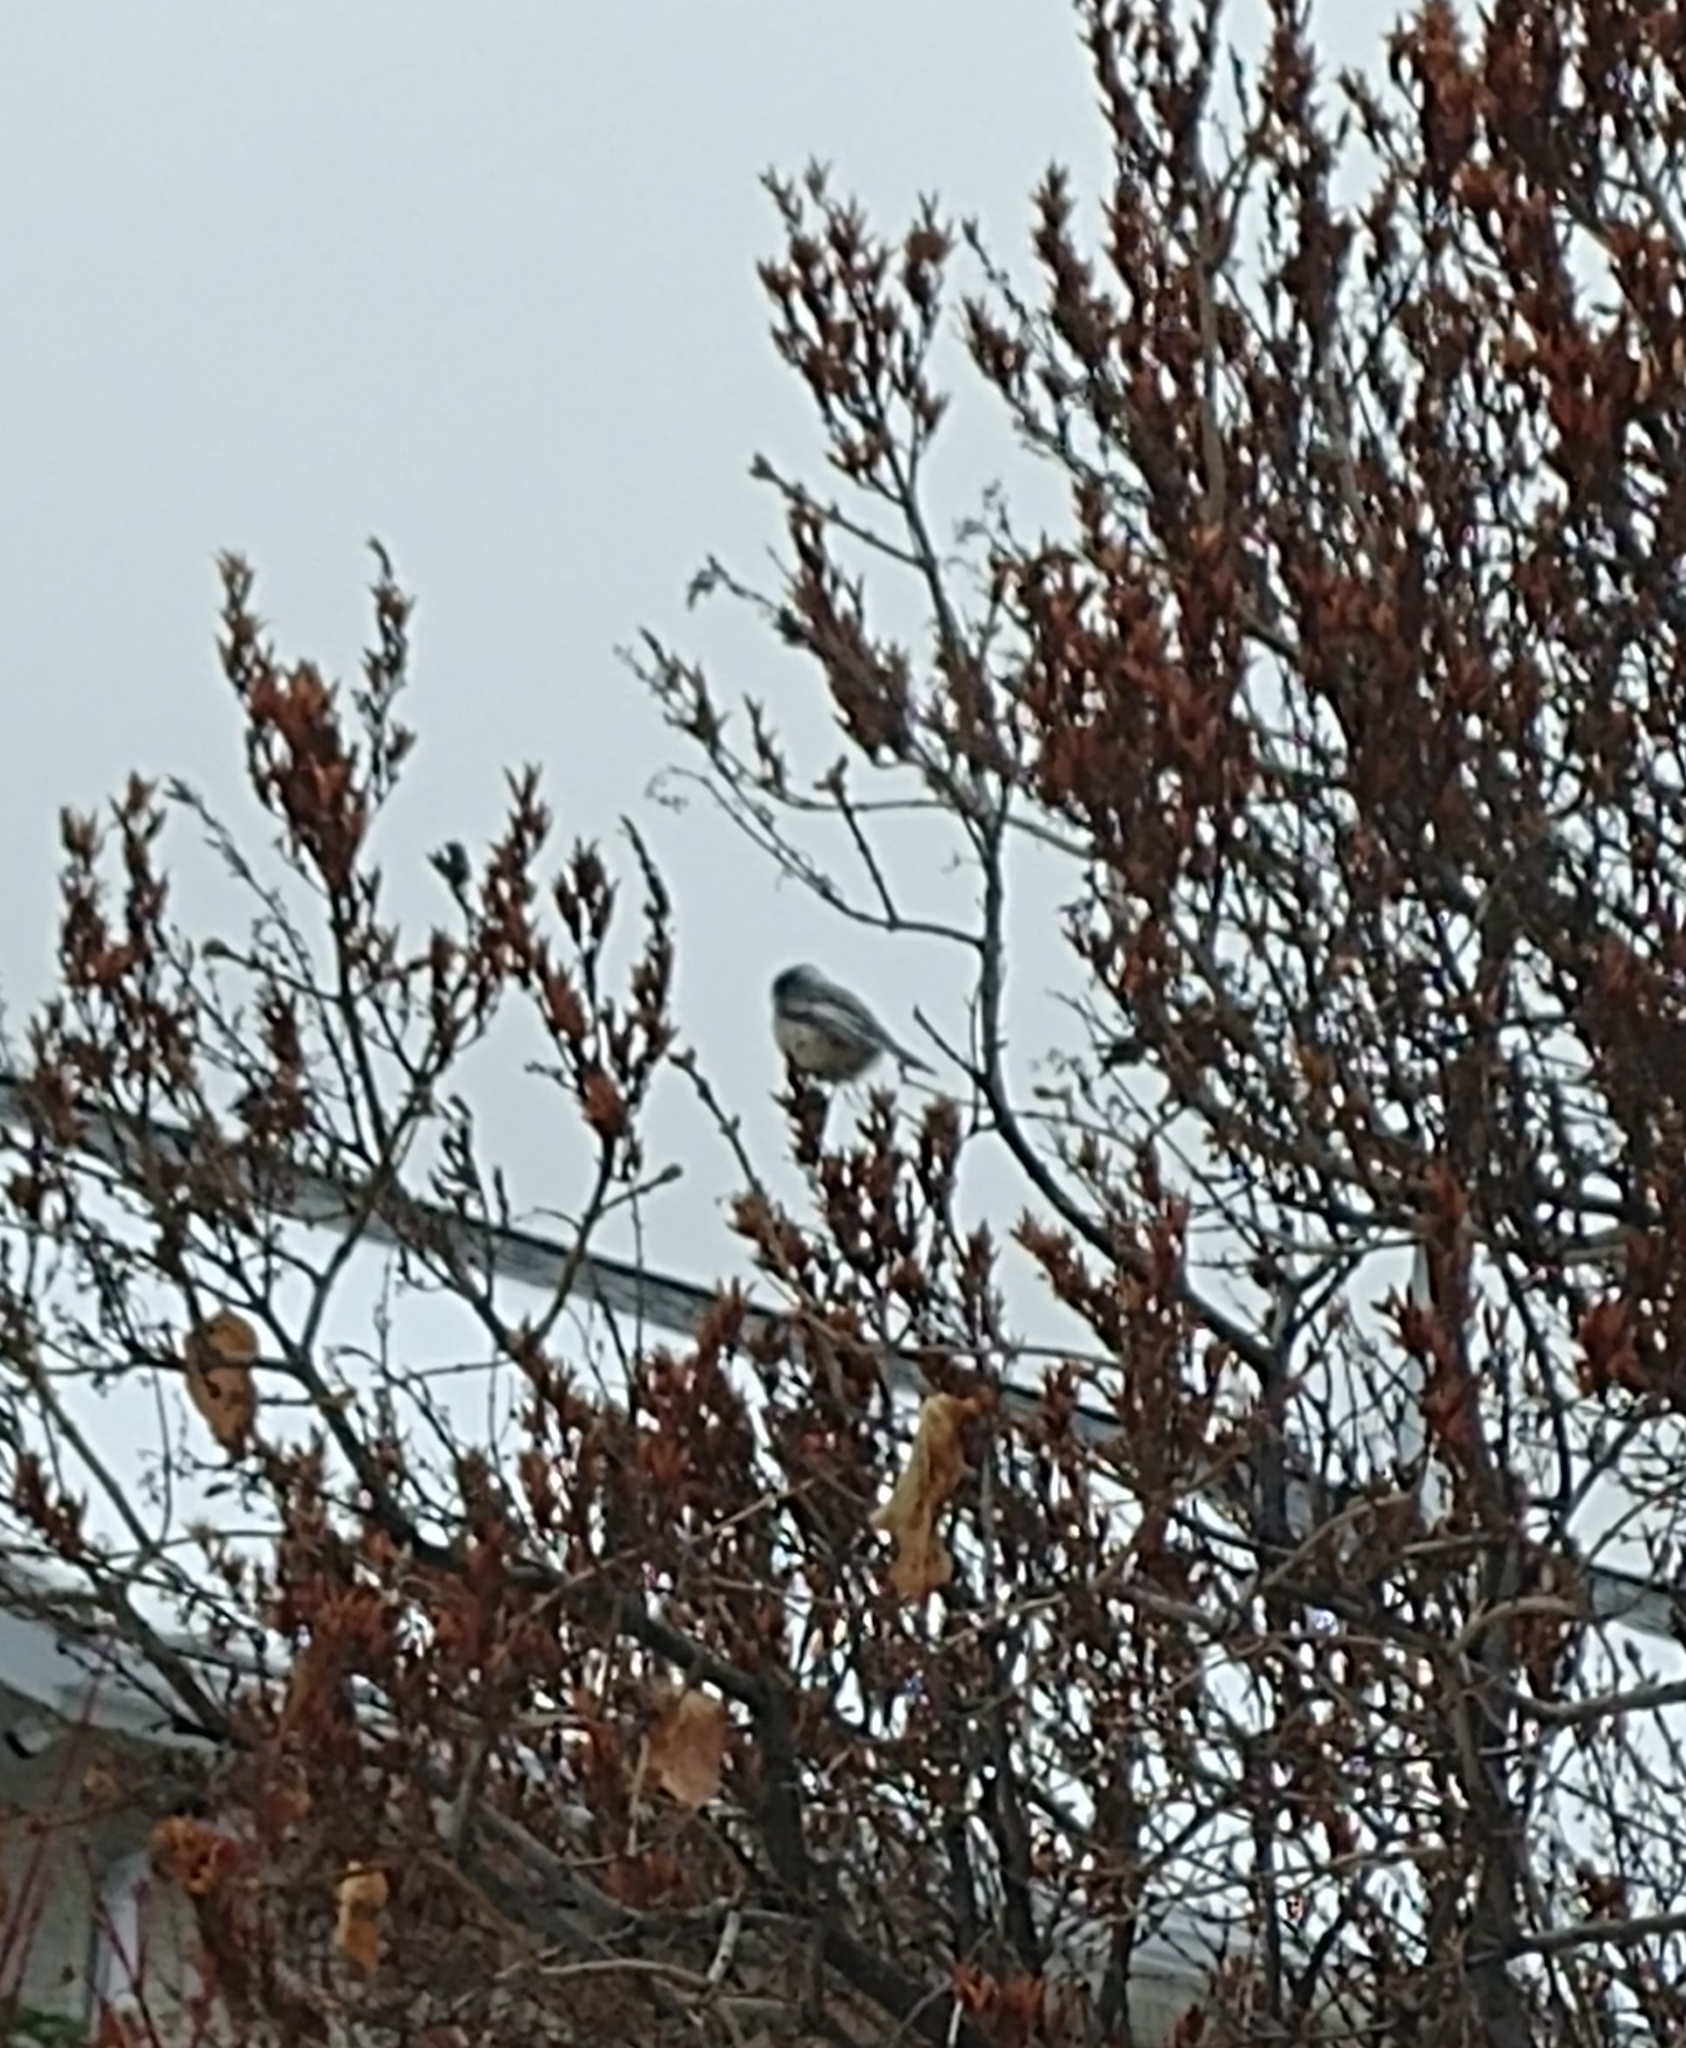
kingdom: Animalia
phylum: Chordata
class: Aves
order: Passeriformes
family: Paridae
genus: Poecile
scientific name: Poecile atricapillus
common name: Black-capped chickadee
